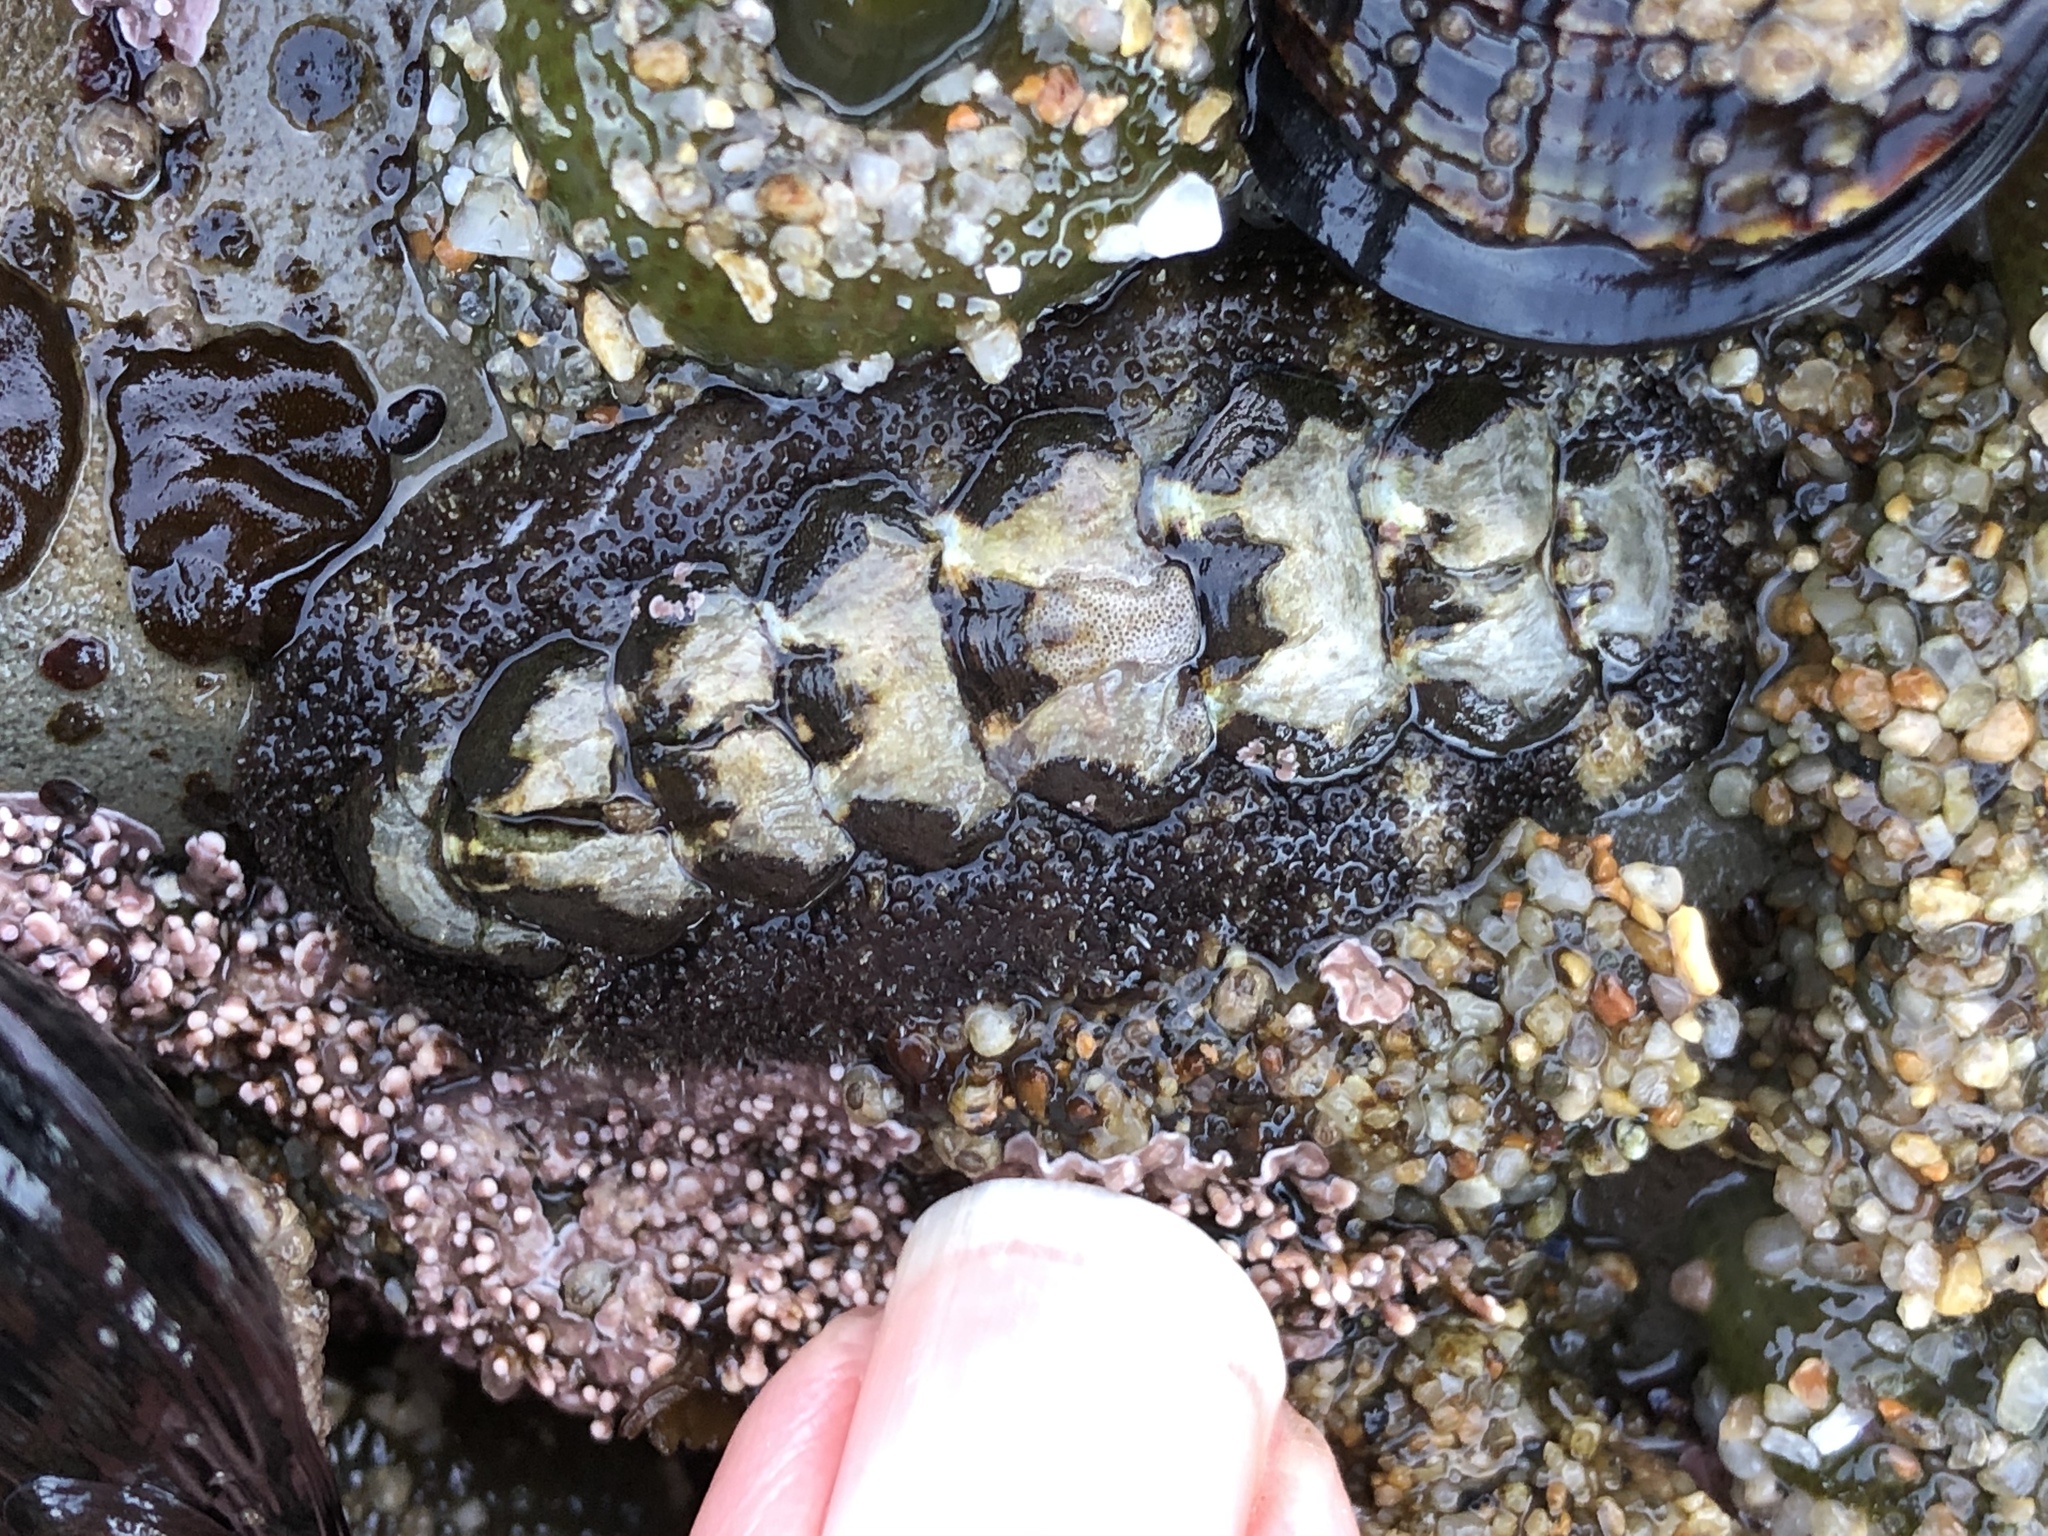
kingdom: Animalia
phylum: Mollusca
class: Polyplacophora
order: Chitonida
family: Tonicellidae
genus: Nuttallina
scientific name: Nuttallina californica
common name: California nuttall chiton
